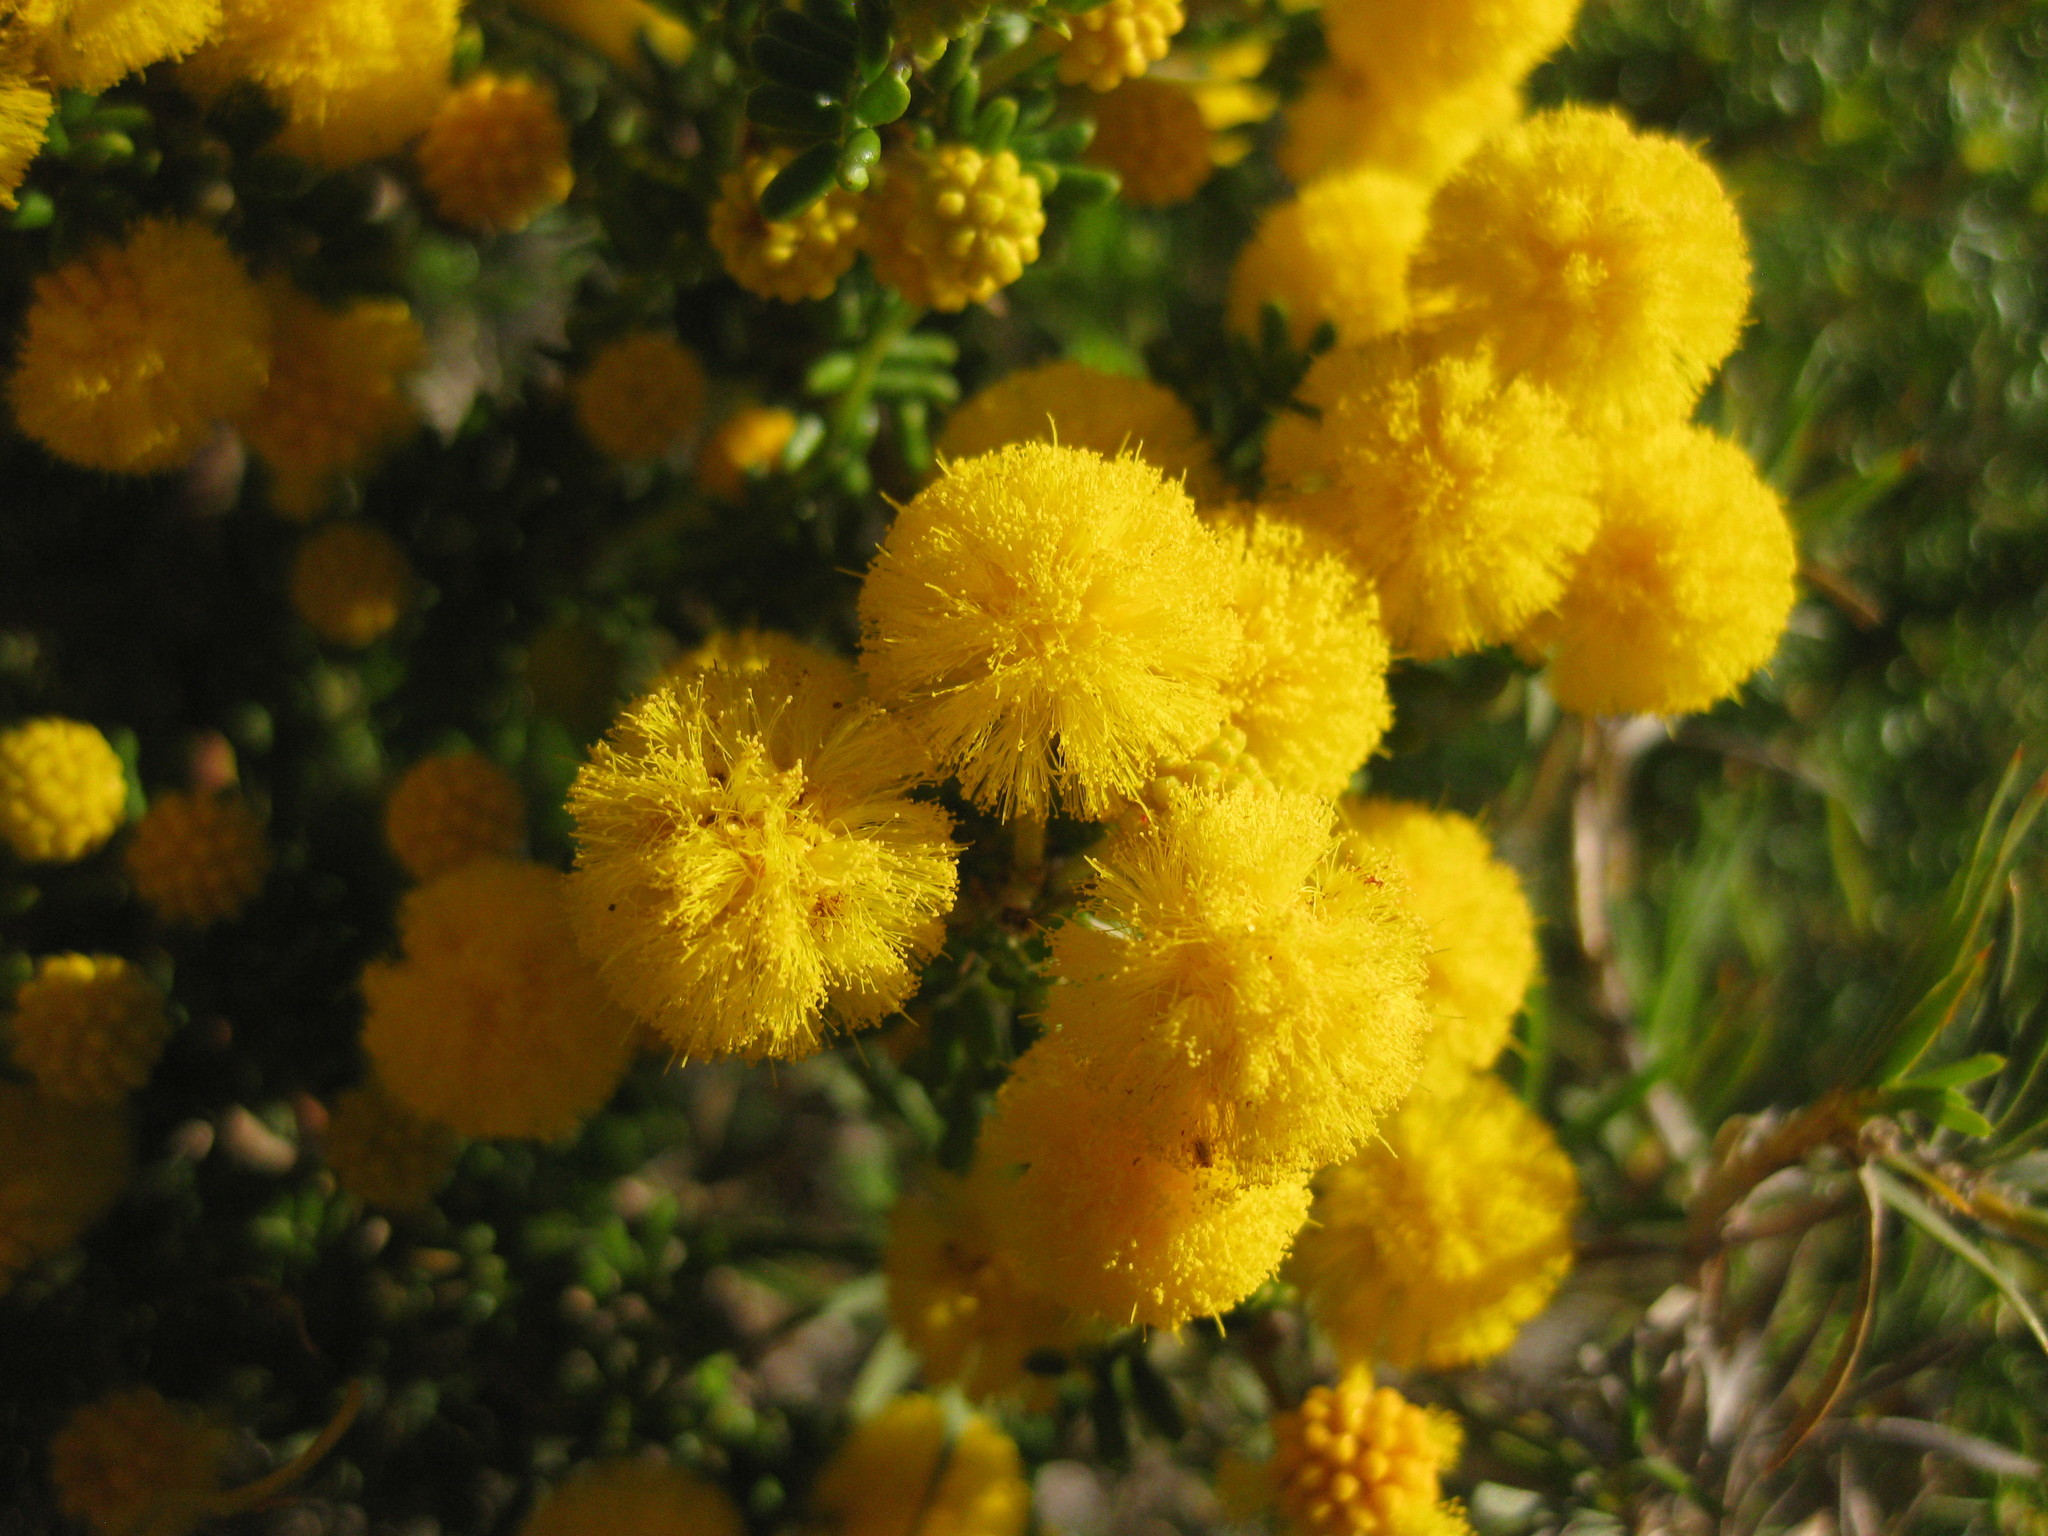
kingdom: Plantae
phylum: Tracheophyta
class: Magnoliopsida
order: Fabales
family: Fabaceae
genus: Acacia
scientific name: Acacia lasiocarpa
